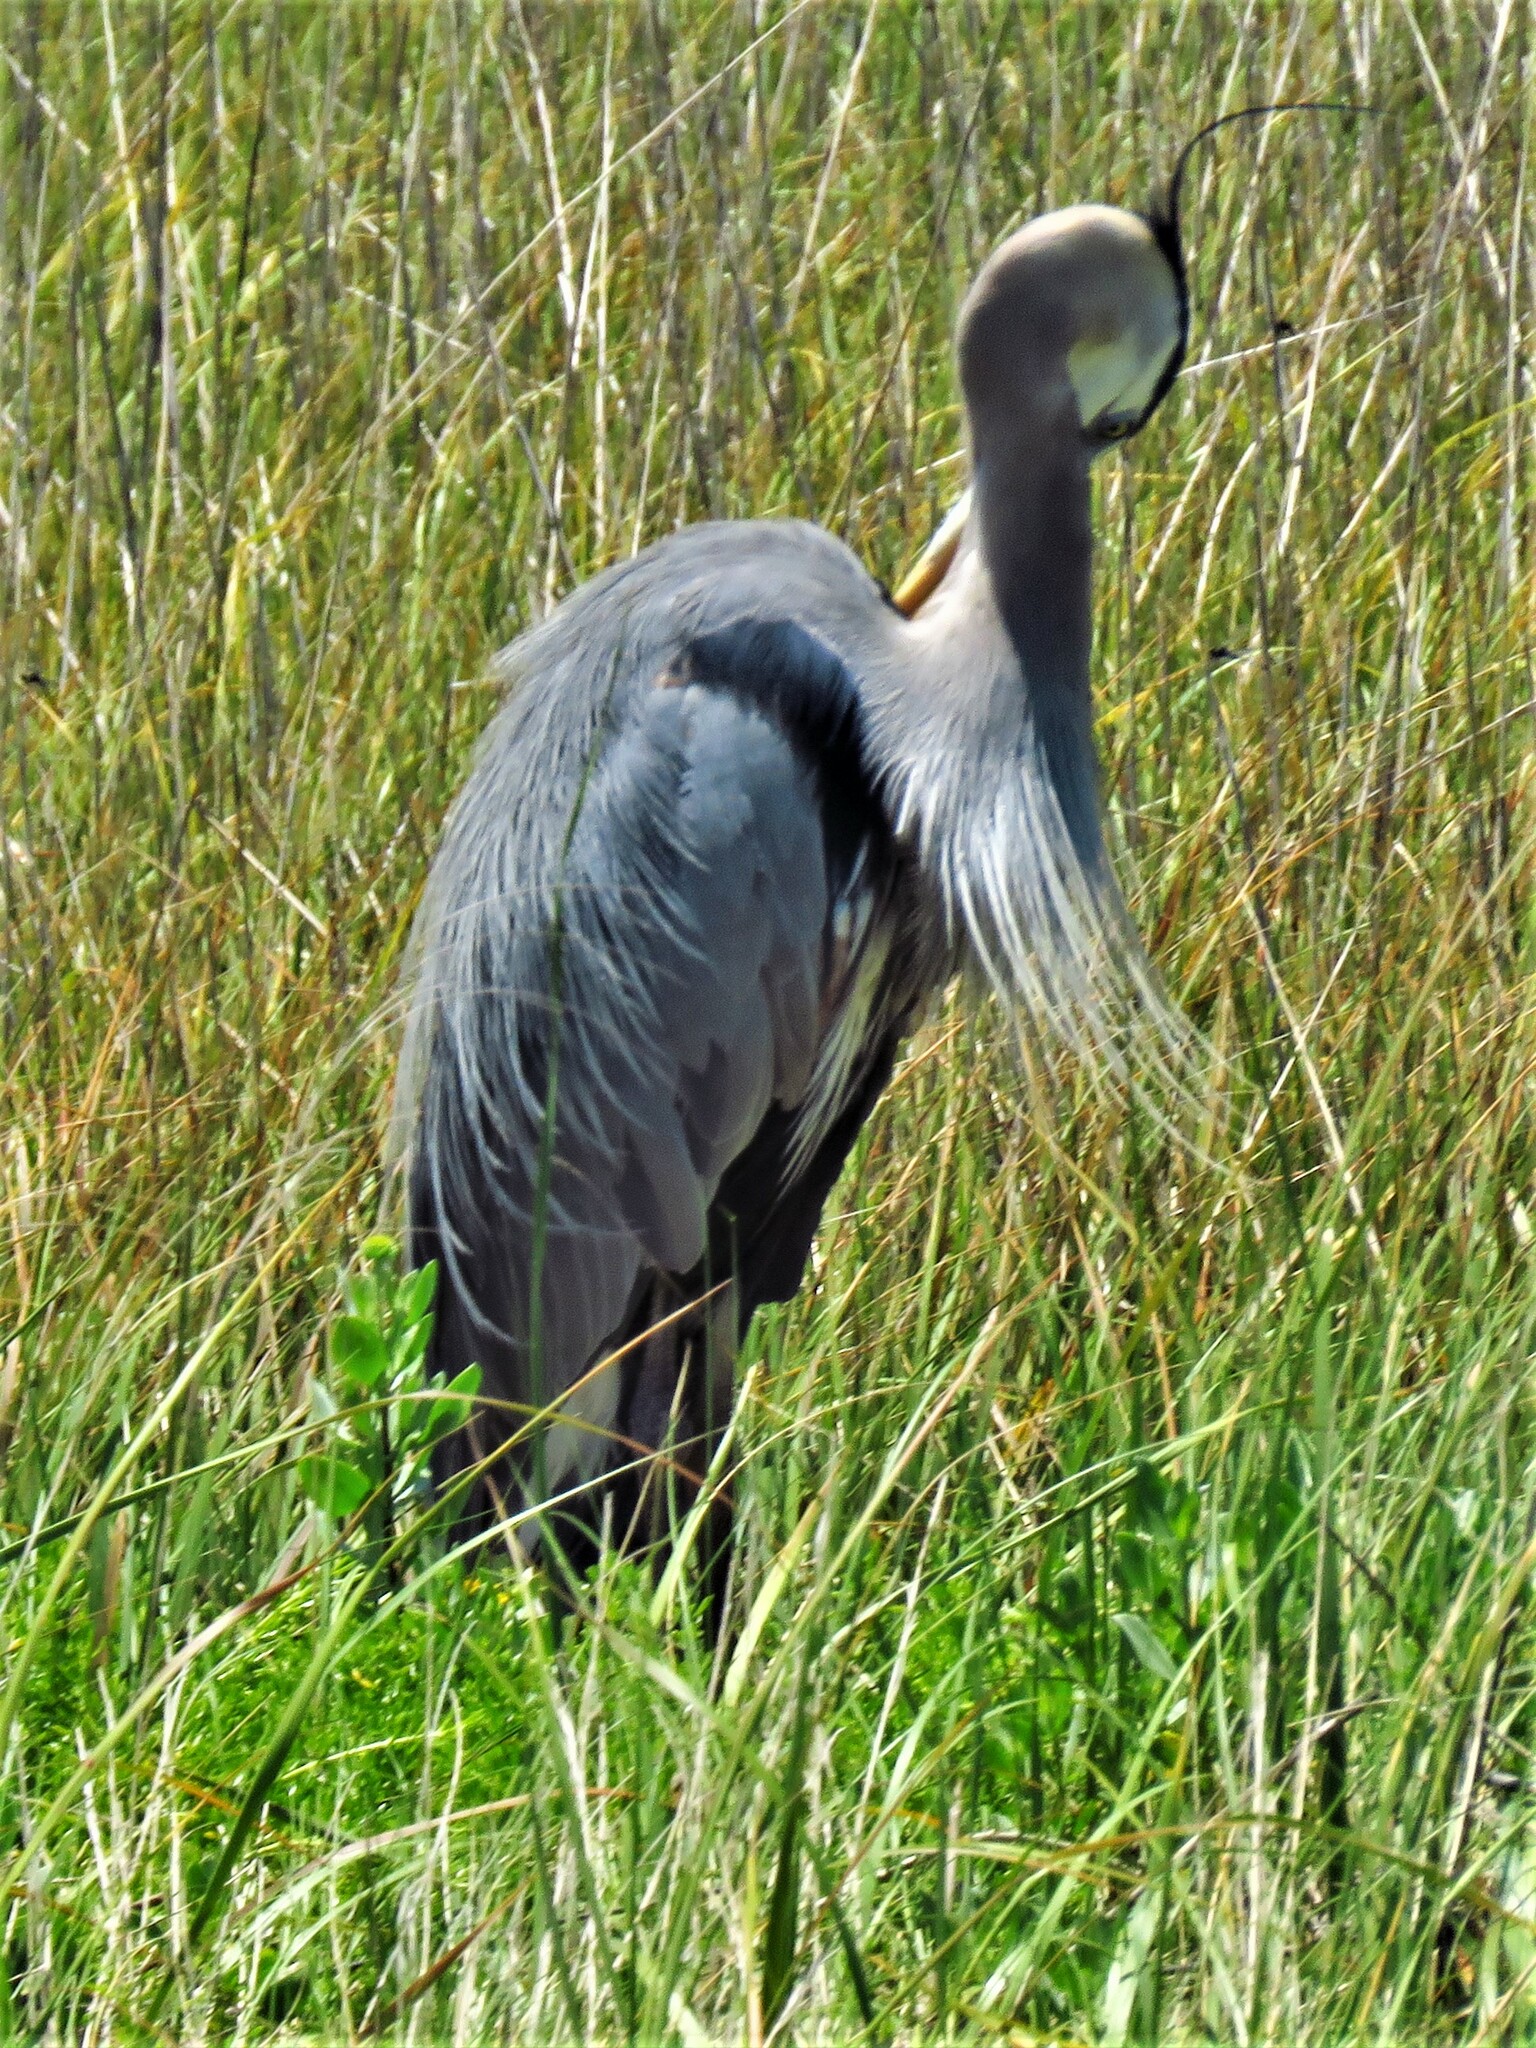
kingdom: Animalia
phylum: Chordata
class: Aves
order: Pelecaniformes
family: Ardeidae
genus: Ardea
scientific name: Ardea herodias
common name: Great blue heron
